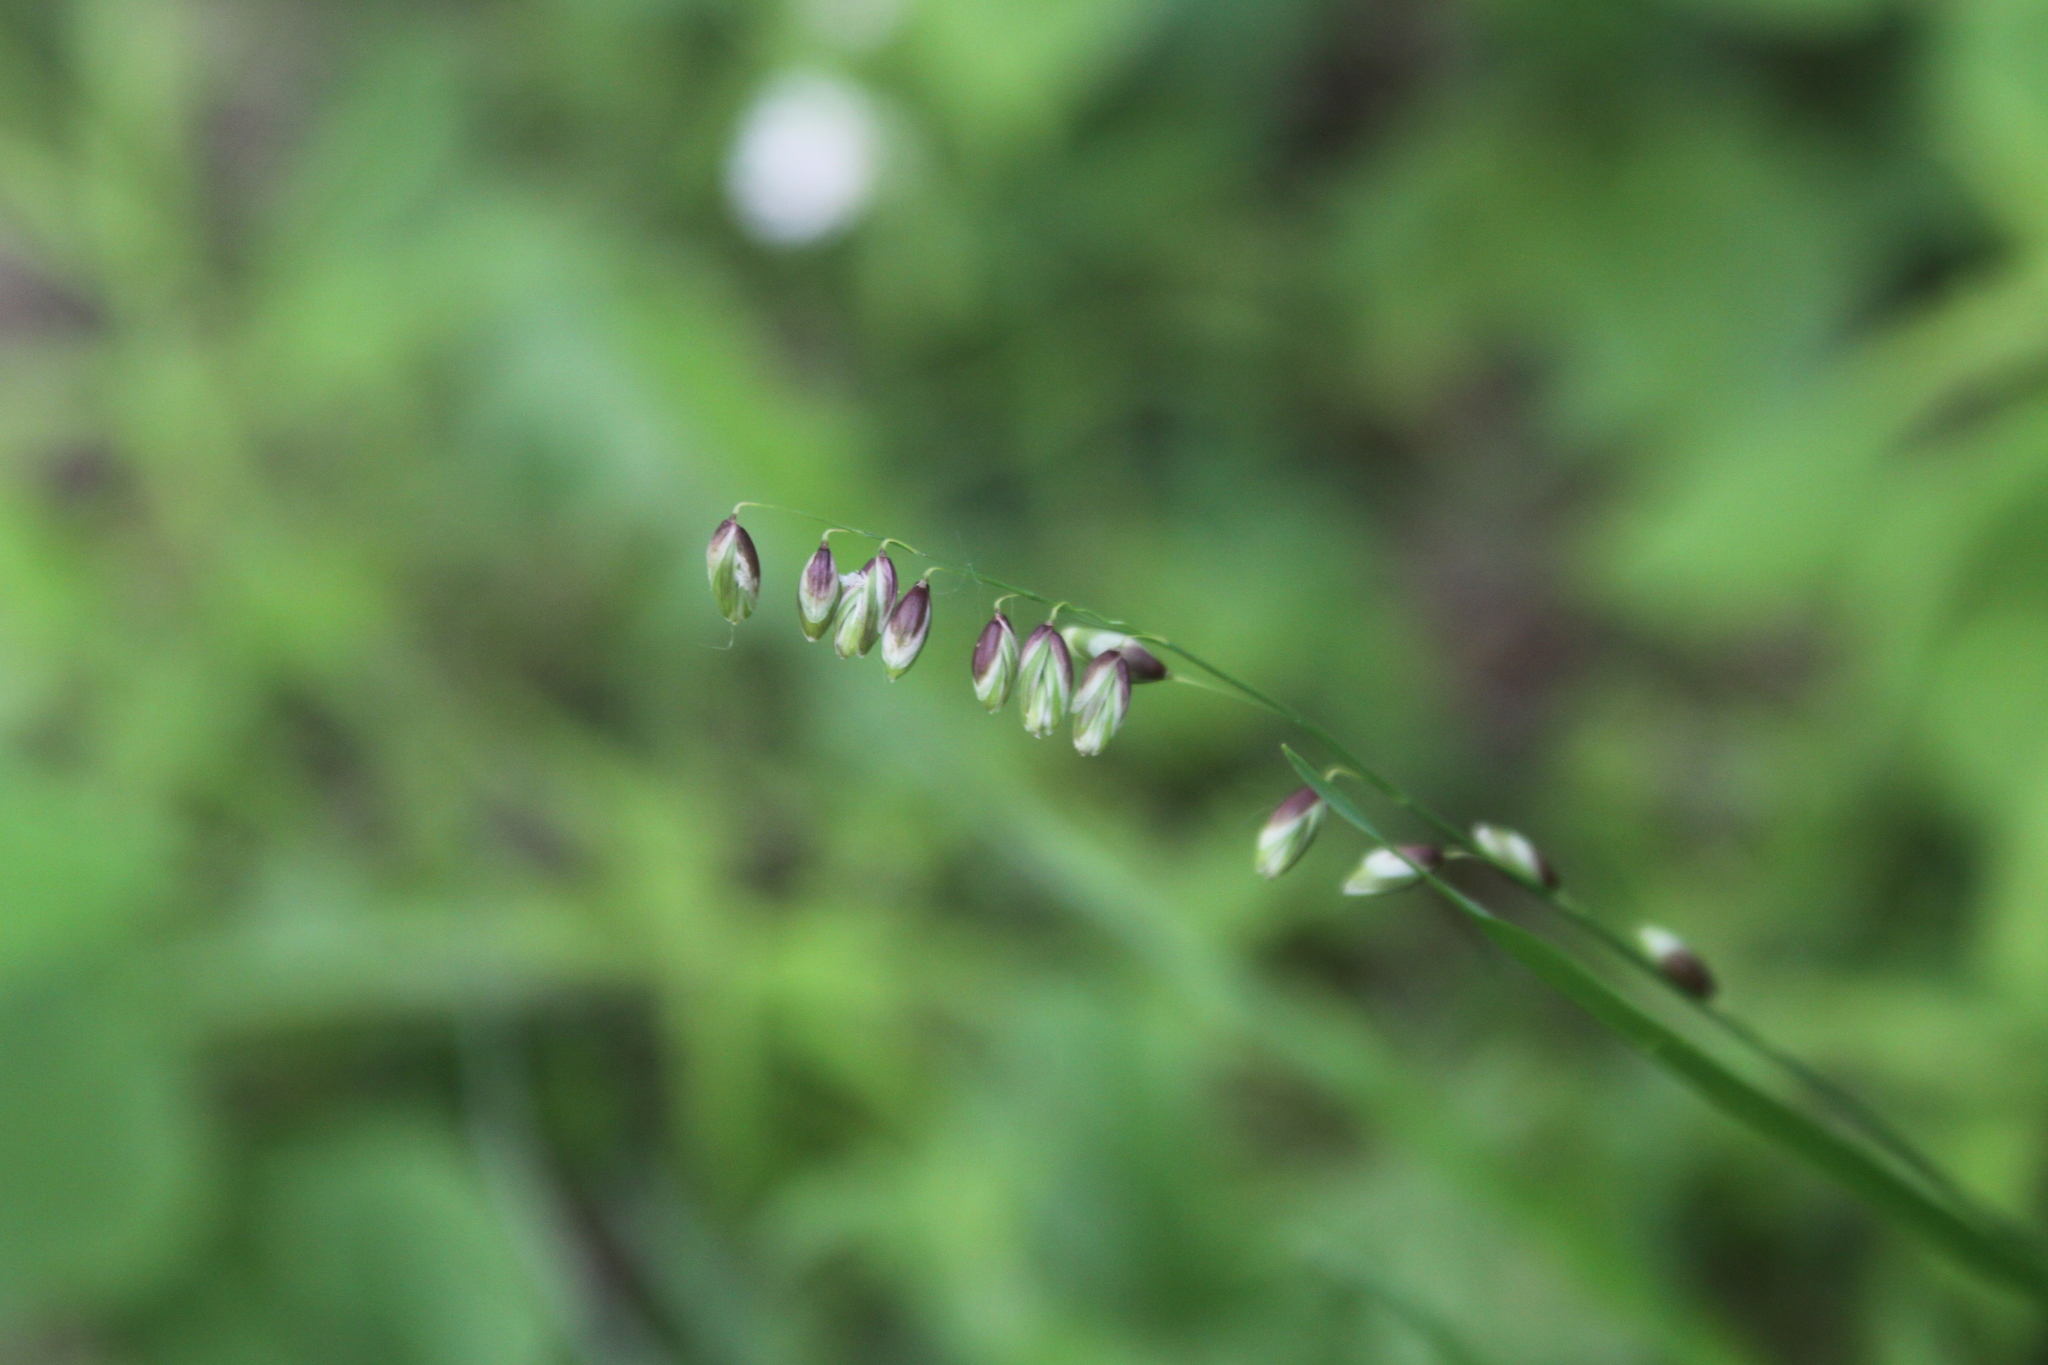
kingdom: Plantae
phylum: Tracheophyta
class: Liliopsida
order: Poales
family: Poaceae
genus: Melica
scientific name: Melica nutans
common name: Mountain melick
